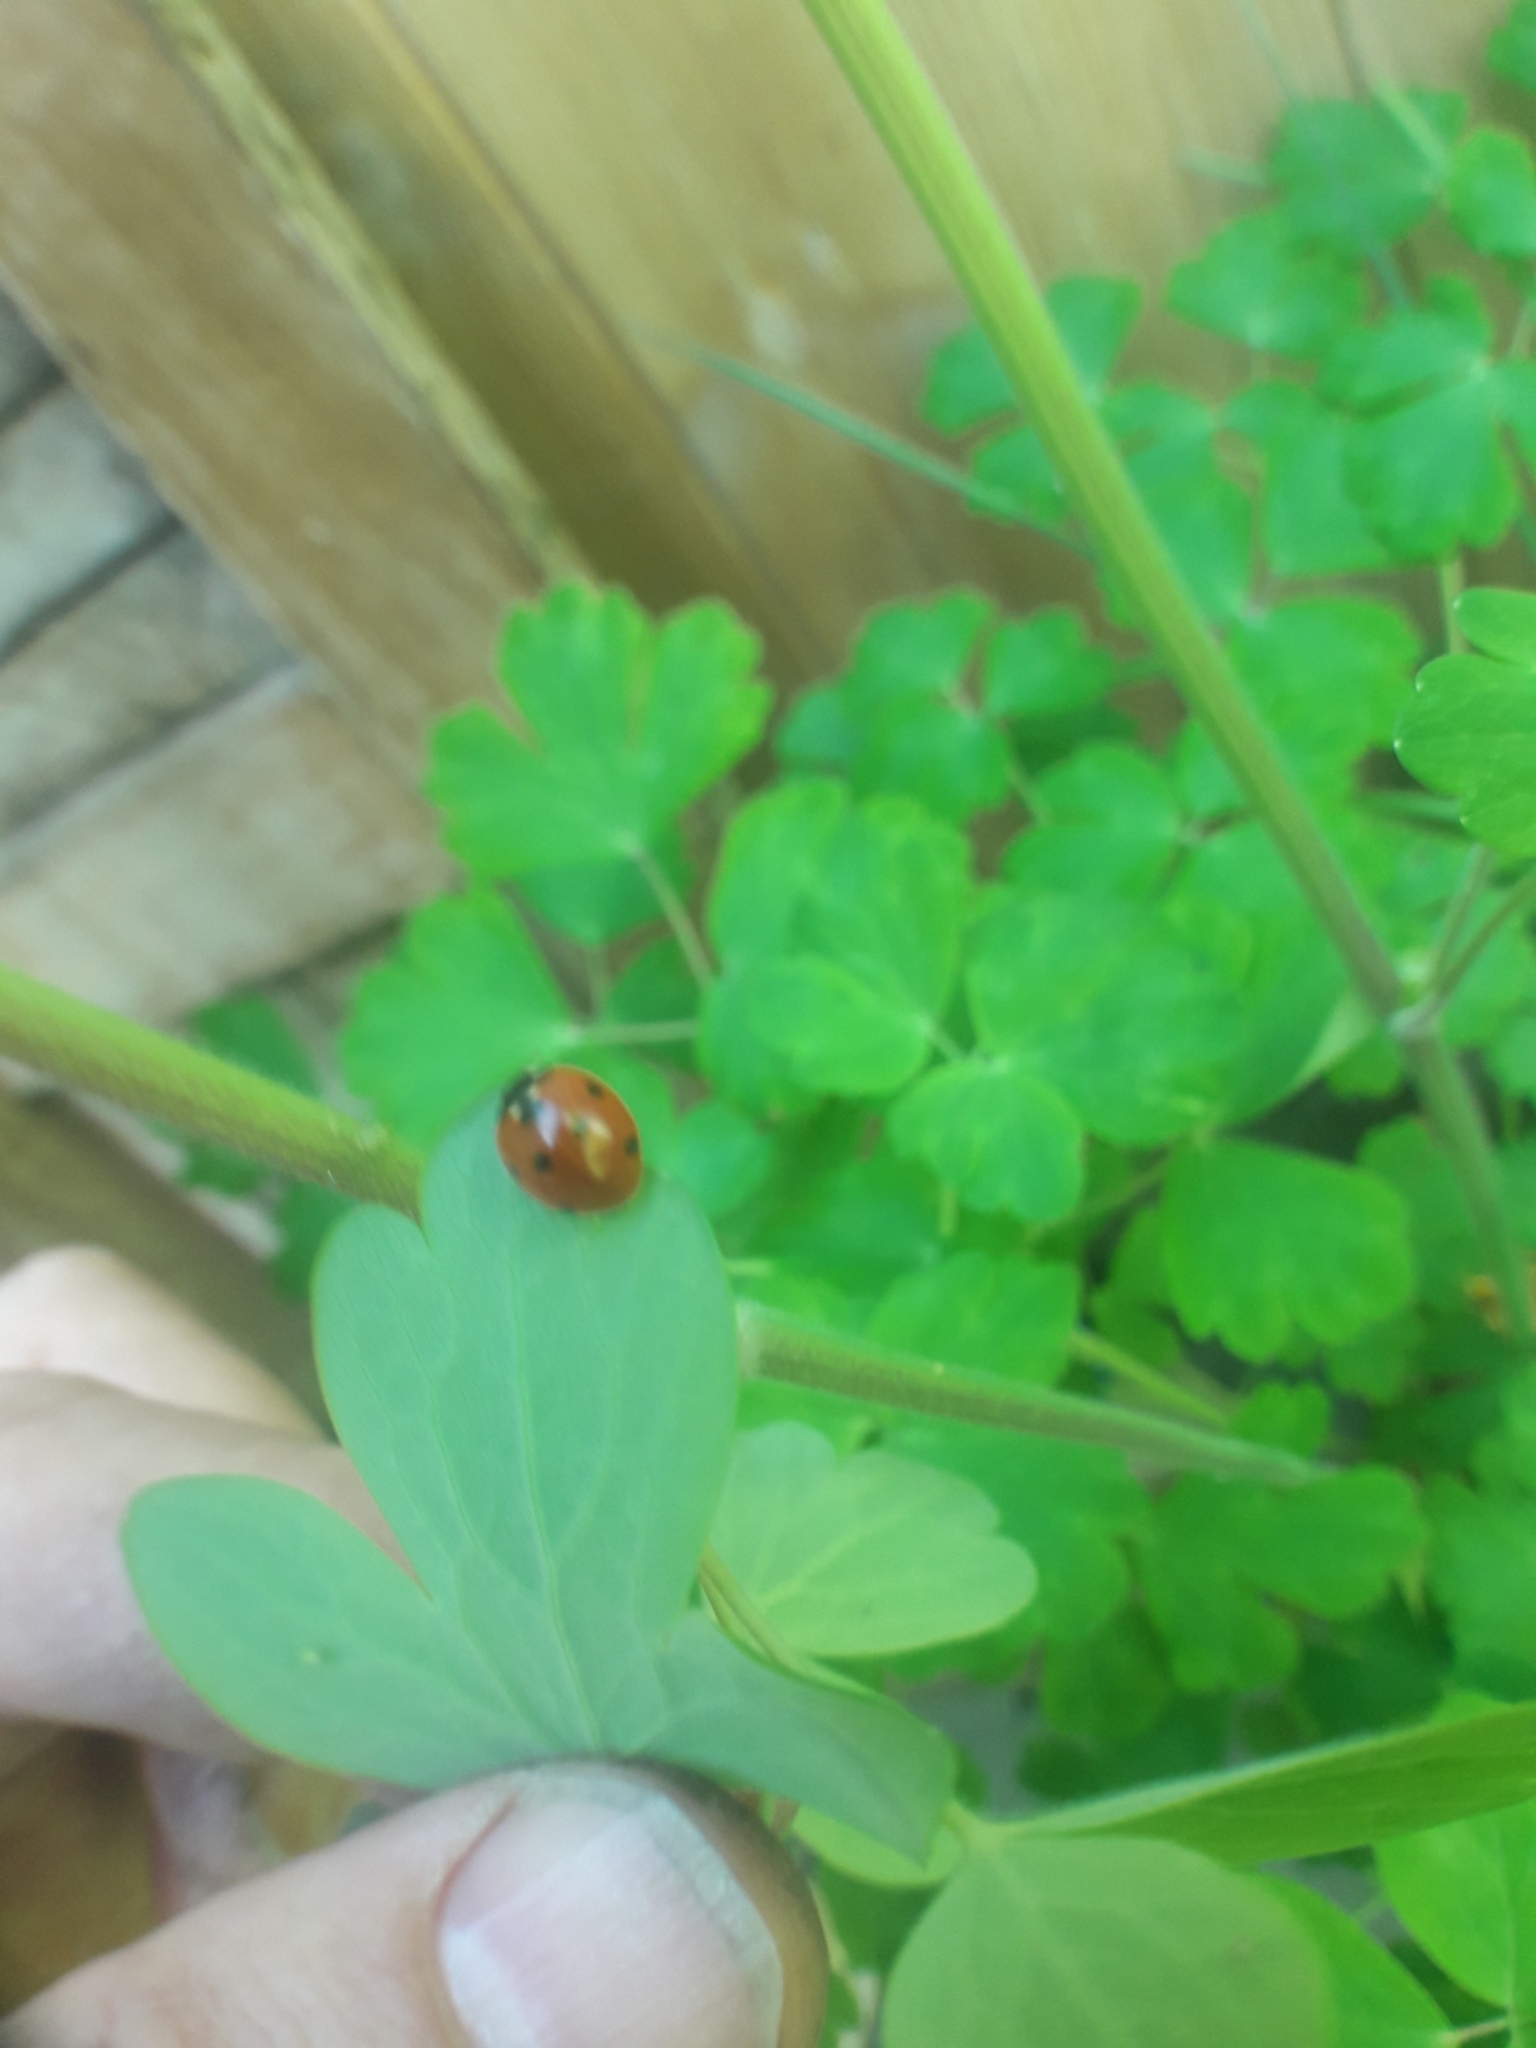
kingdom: Animalia
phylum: Arthropoda
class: Insecta
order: Coleoptera
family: Coccinellidae
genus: Coccinella
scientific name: Coccinella septempunctata
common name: Sevenspotted lady beetle
